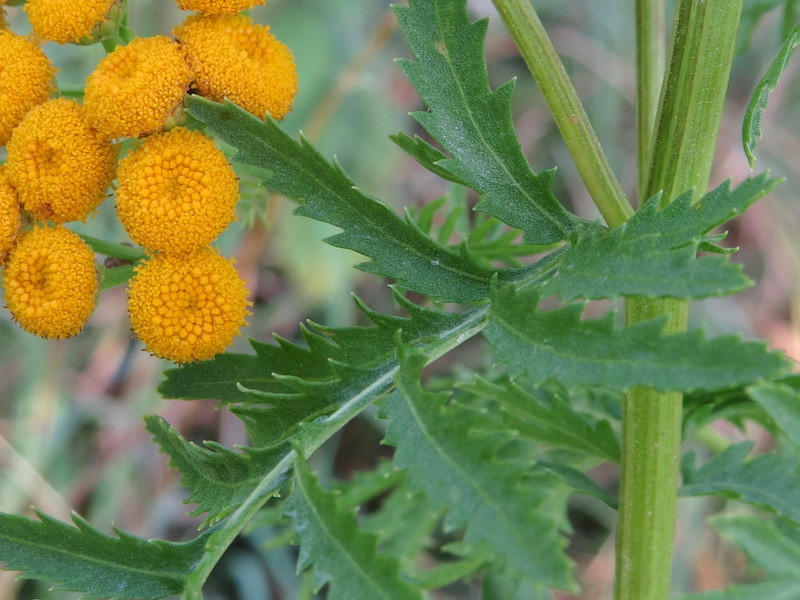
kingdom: Plantae
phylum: Tracheophyta
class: Magnoliopsida
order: Asterales
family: Asteraceae
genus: Tanacetum
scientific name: Tanacetum vulgare
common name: Common tansy
